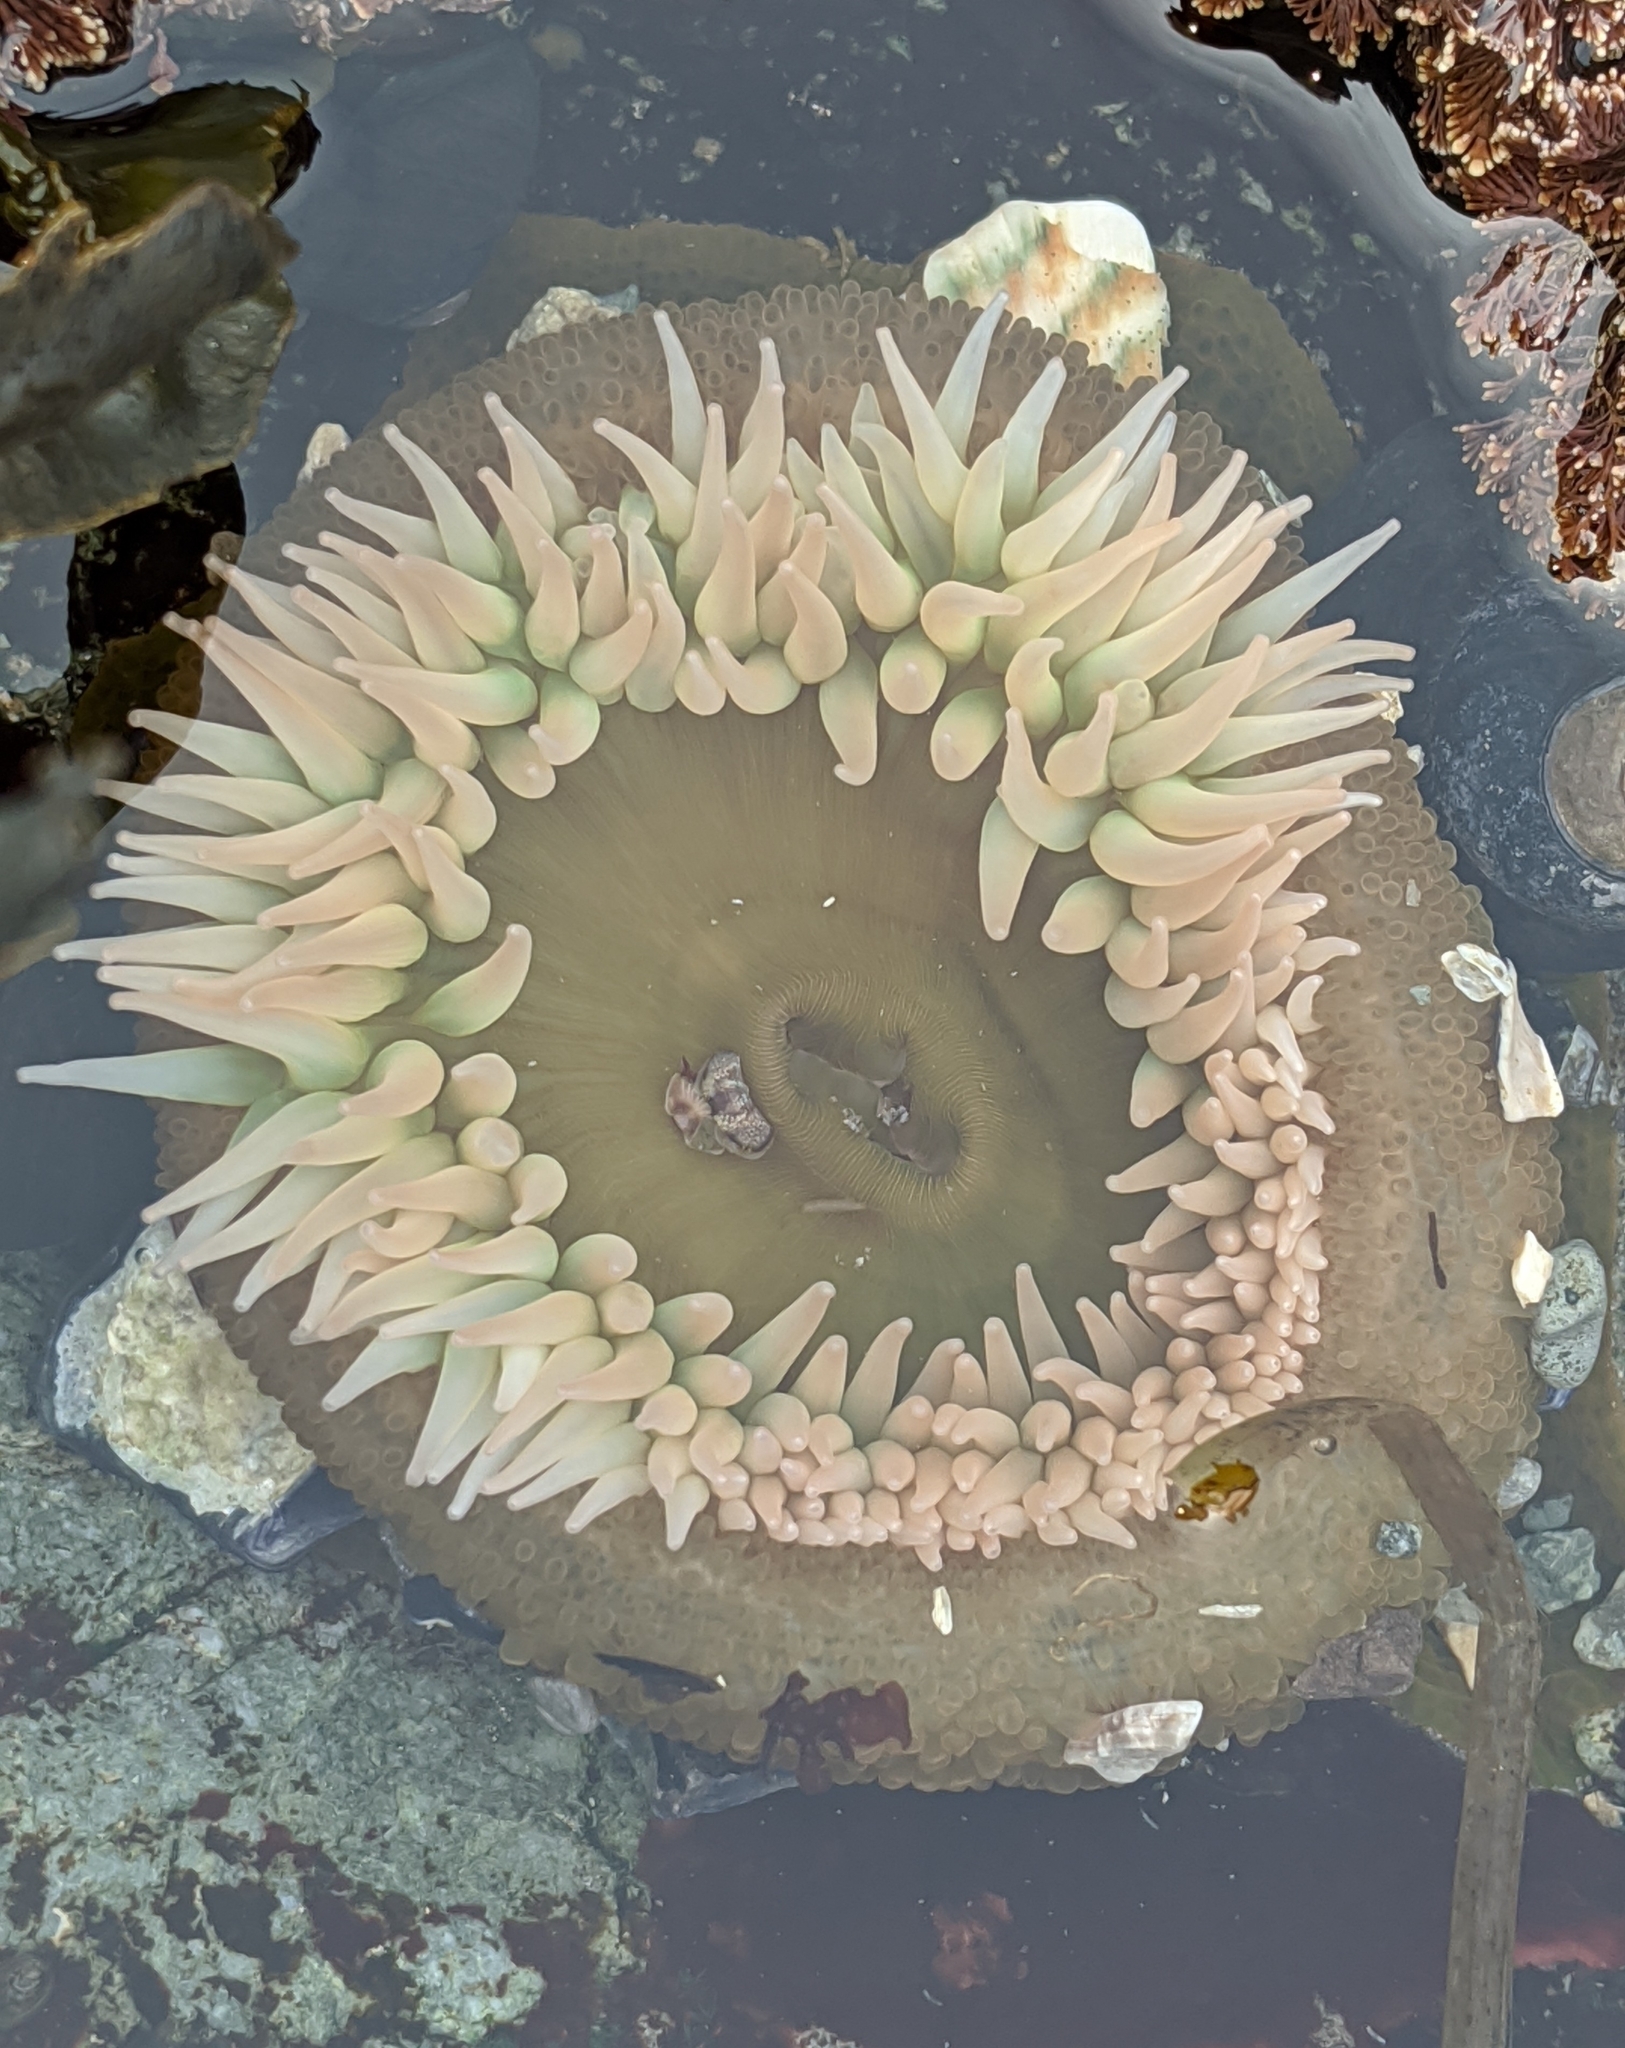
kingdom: Animalia
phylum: Cnidaria
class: Anthozoa
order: Actiniaria
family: Actiniidae
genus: Anthopleura
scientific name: Anthopleura xanthogrammica
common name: Giant green anemone
